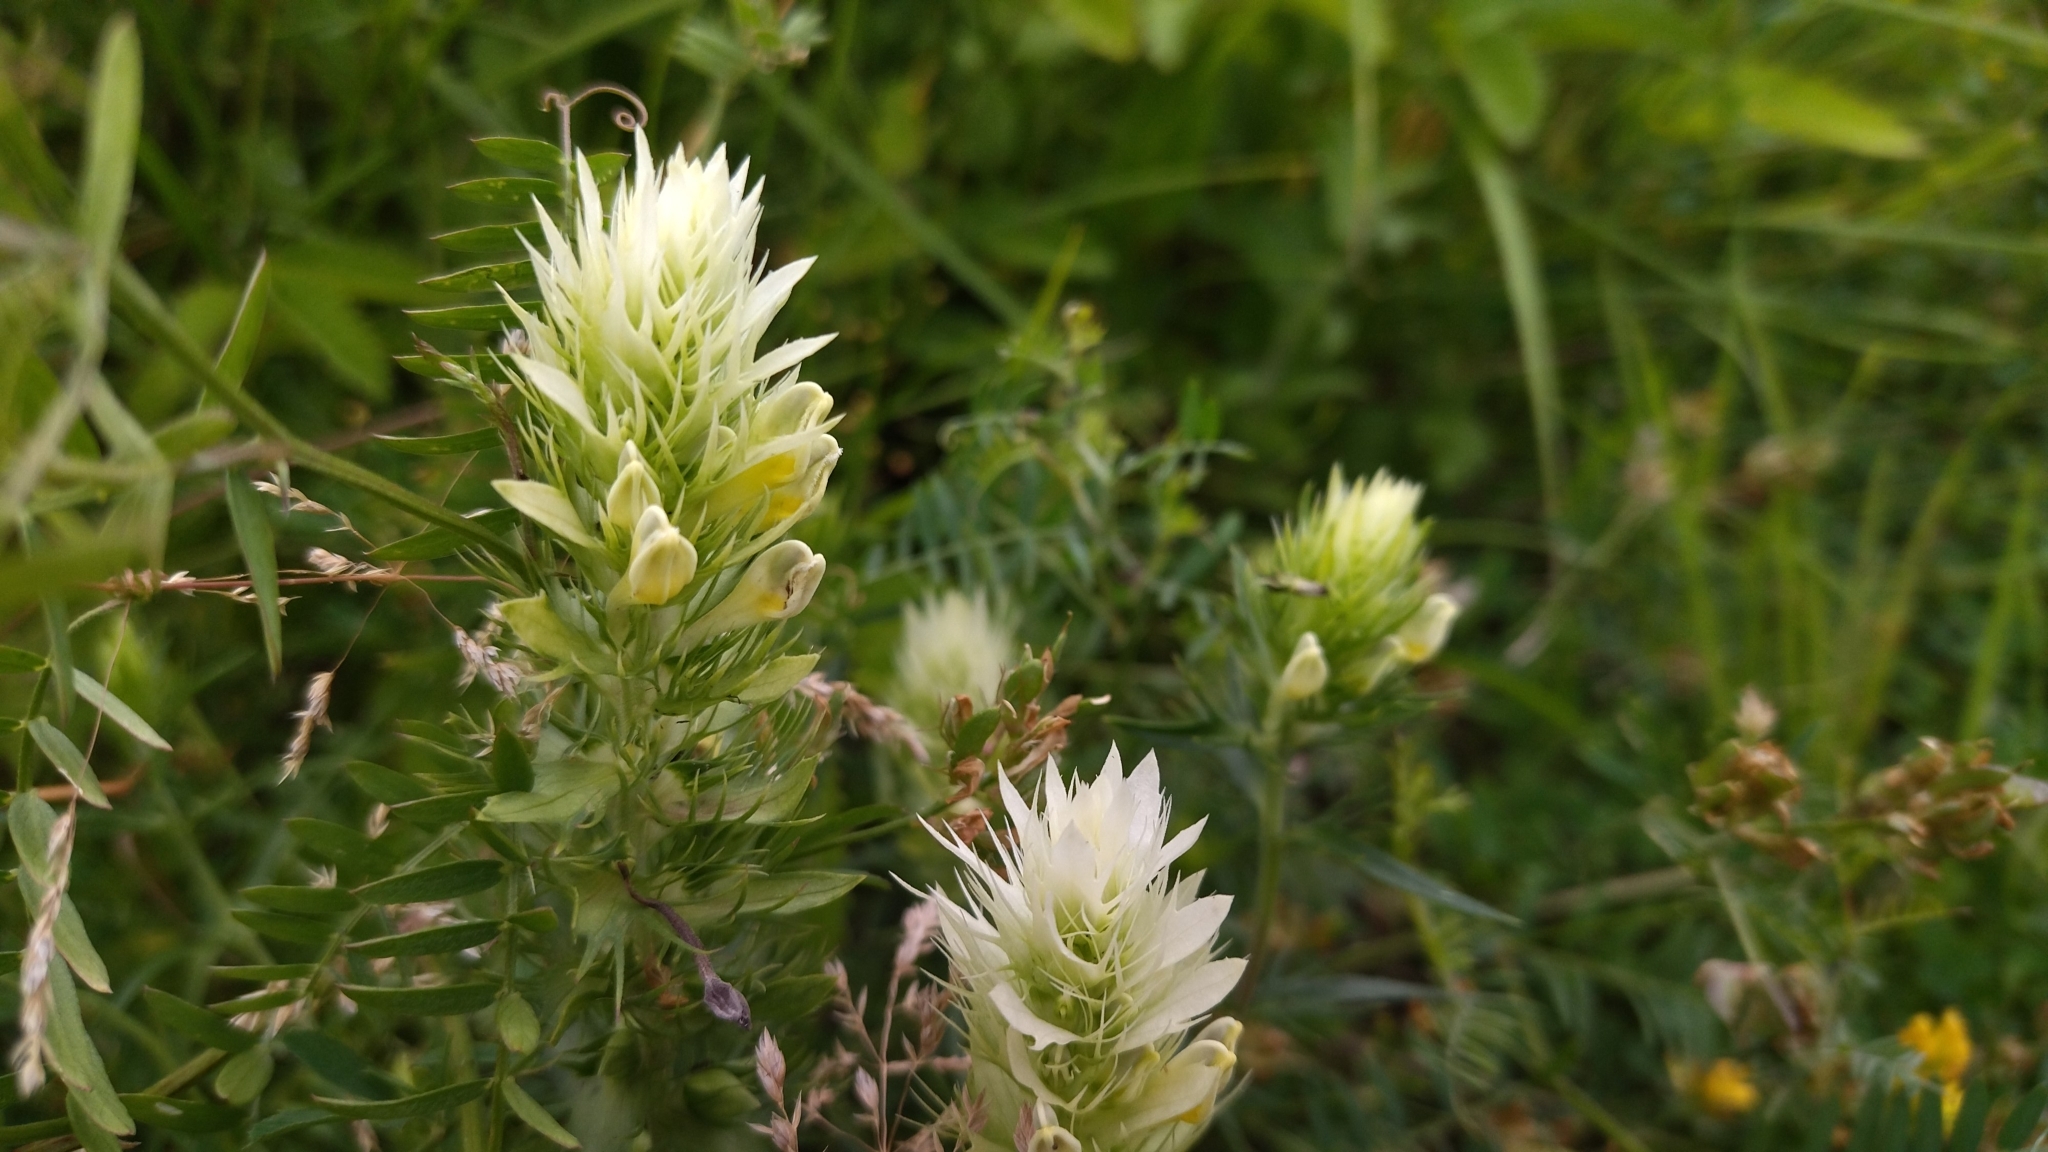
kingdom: Plantae
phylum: Tracheophyta
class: Magnoliopsida
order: Lamiales
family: Orobanchaceae
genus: Melampyrum
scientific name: Melampyrum arvense
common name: Field cow-wheat
